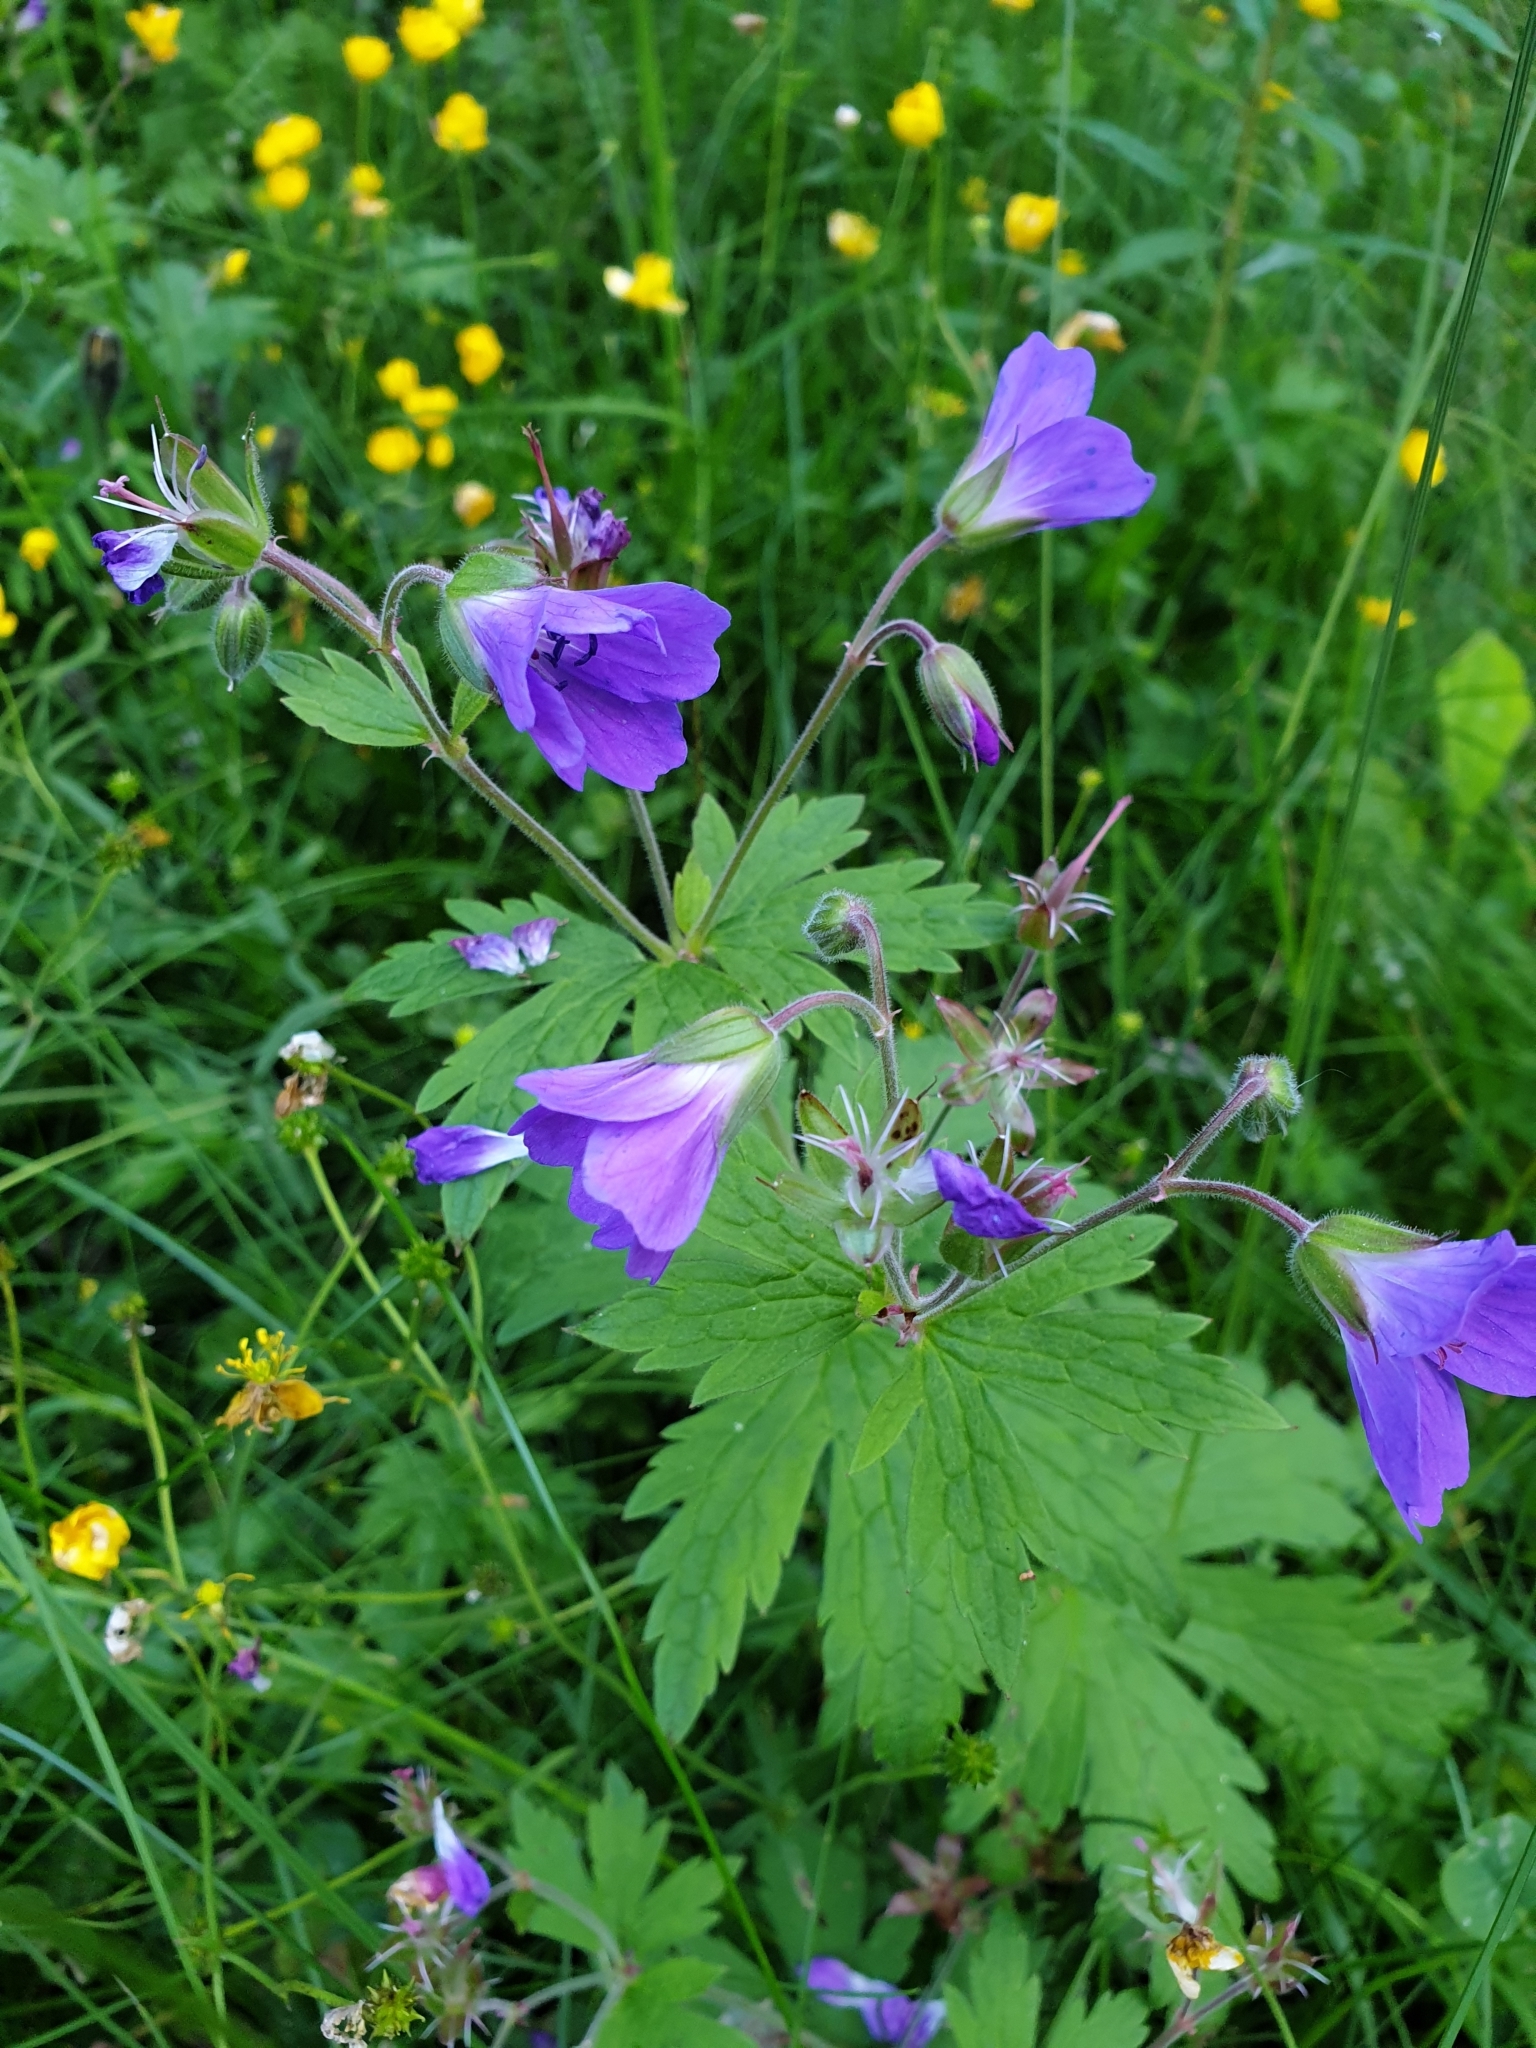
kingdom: Plantae
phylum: Tracheophyta
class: Magnoliopsida
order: Geraniales
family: Geraniaceae
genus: Geranium
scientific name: Geranium sylvaticum
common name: Wood crane's-bill
